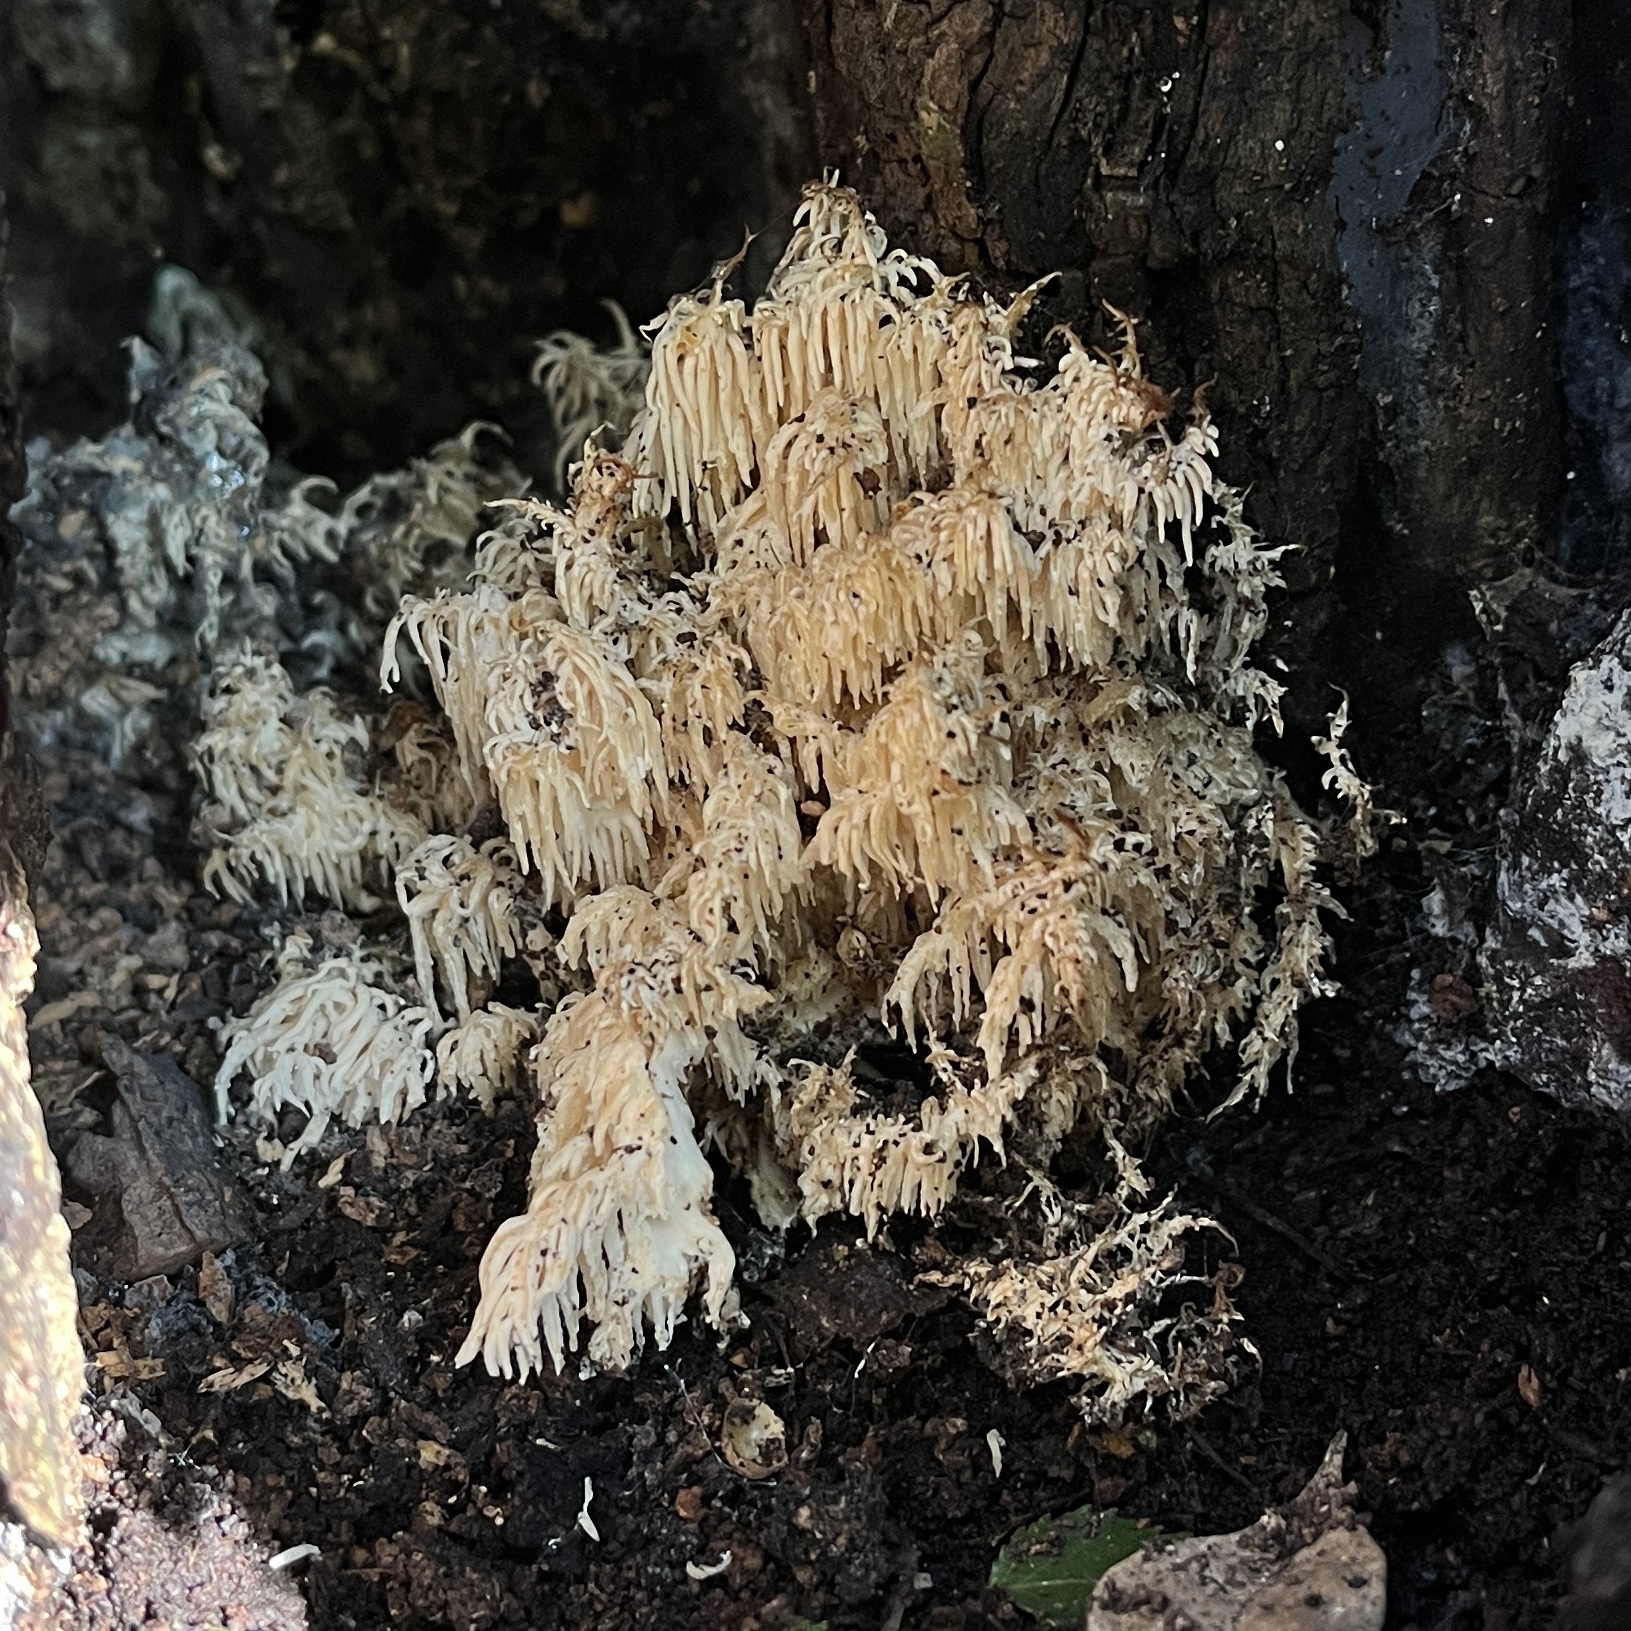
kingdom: Fungi
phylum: Basidiomycota
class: Agaricomycetes
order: Russulales
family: Hericiaceae
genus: Hericium
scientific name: Hericium coralloides
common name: Coral tooth
